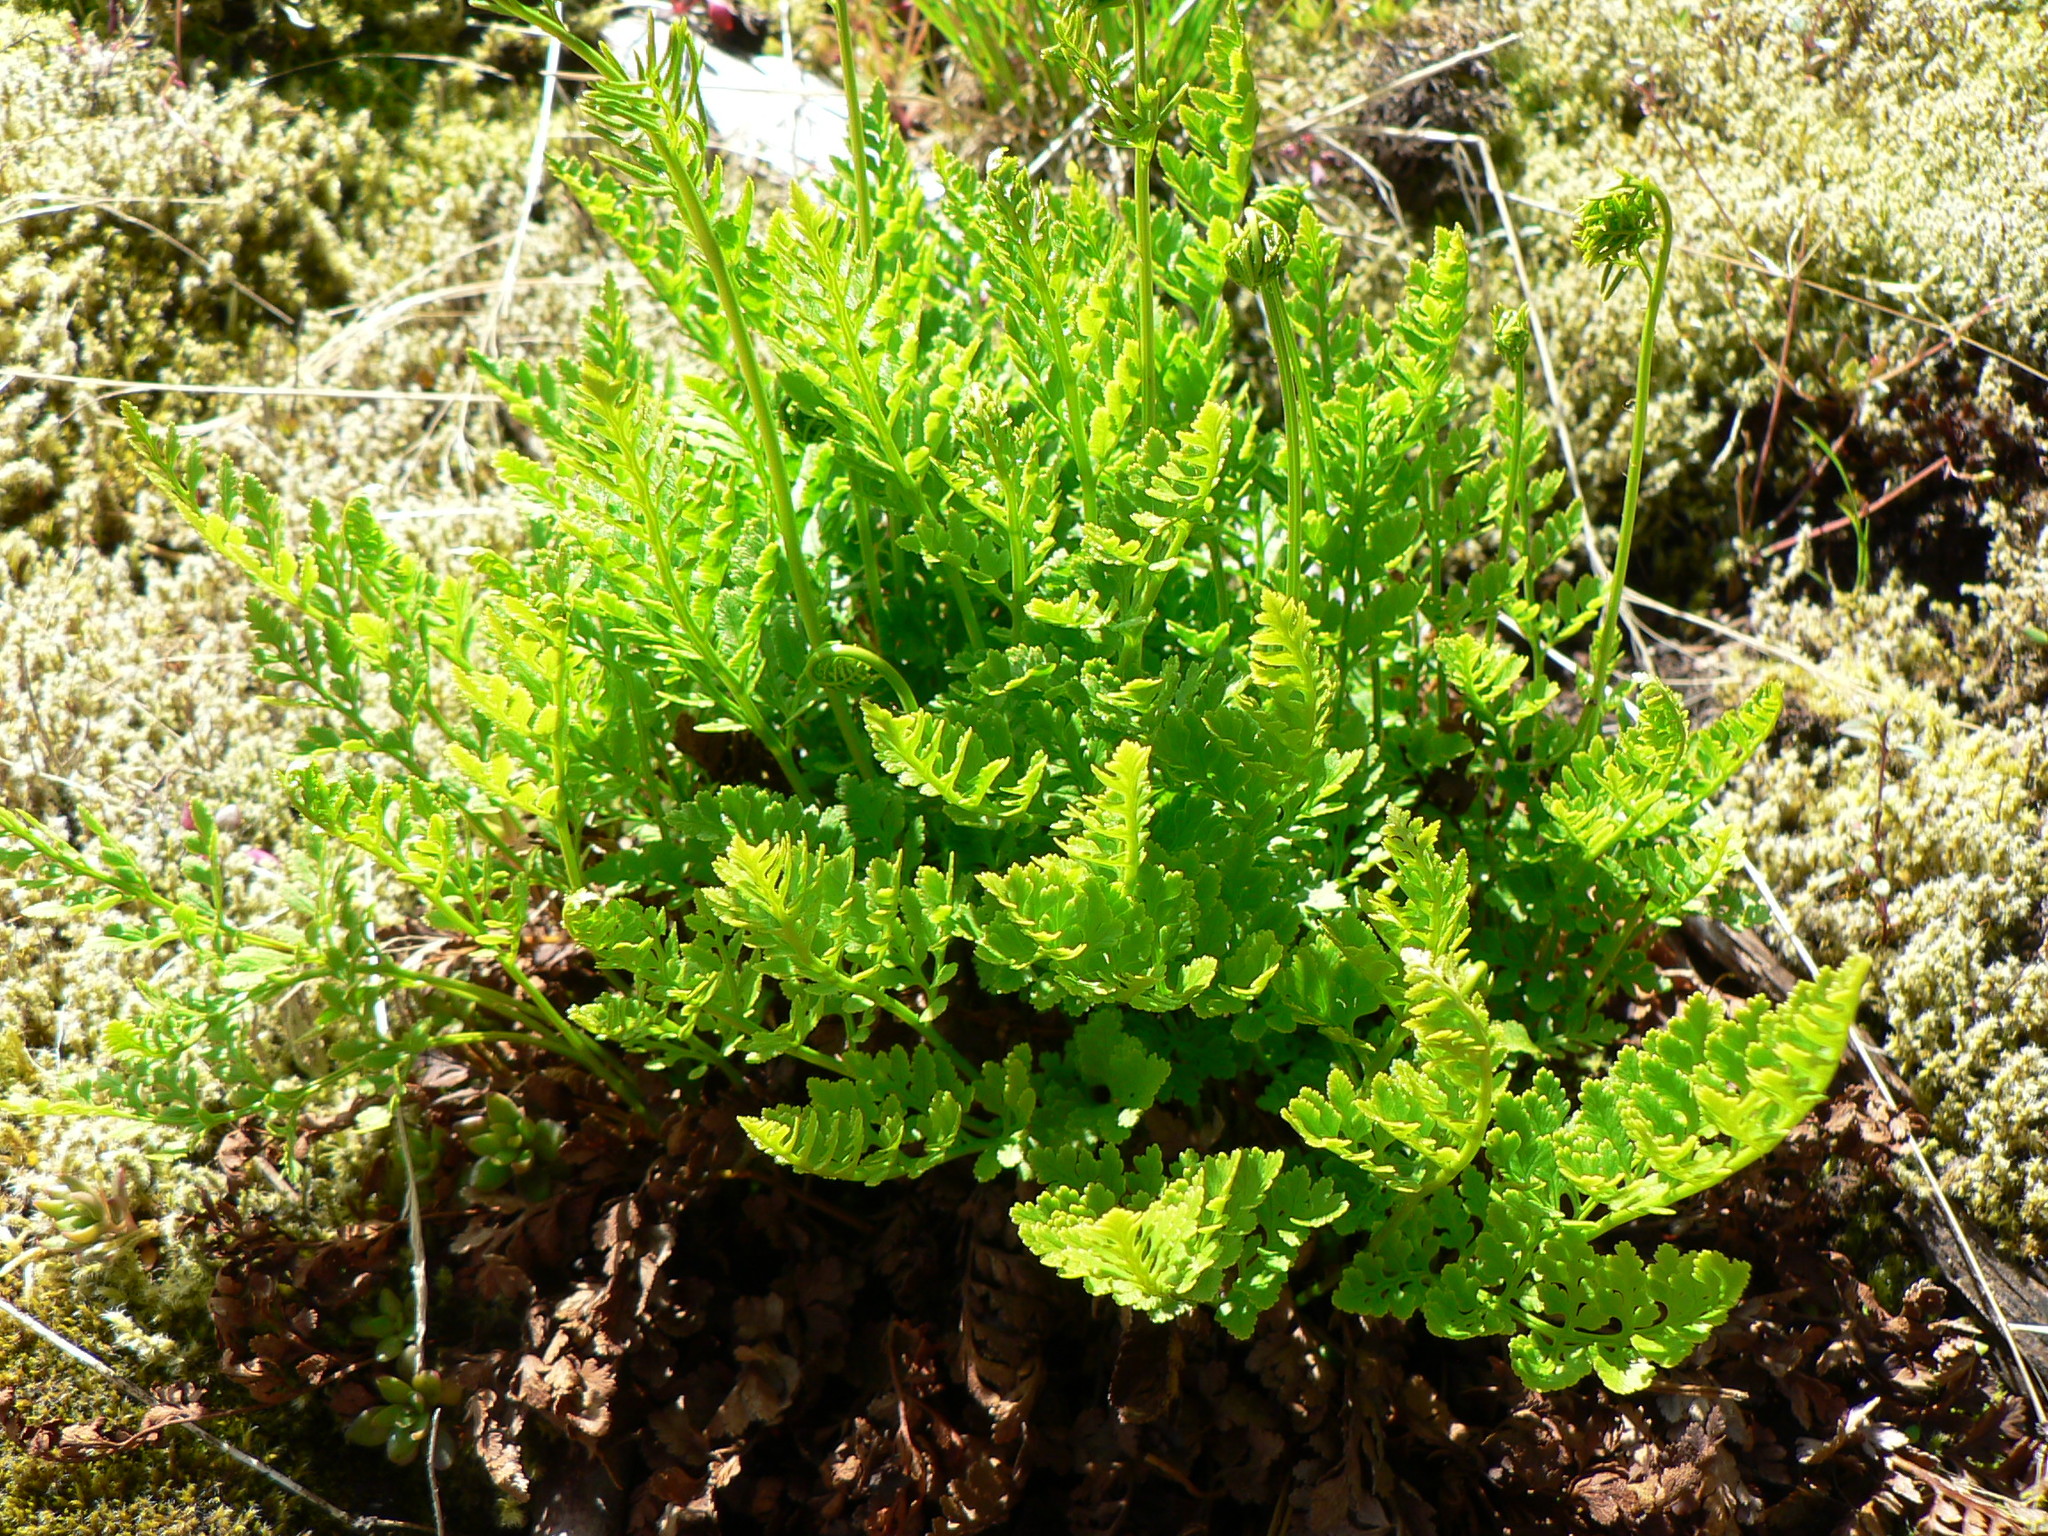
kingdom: Plantae
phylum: Tracheophyta
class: Polypodiopsida
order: Polypodiales
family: Pteridaceae
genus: Cryptogramma
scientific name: Cryptogramma acrostichoides
